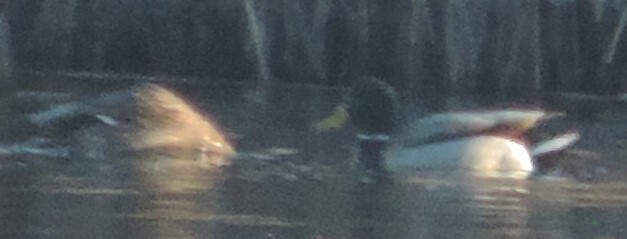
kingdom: Animalia
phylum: Chordata
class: Aves
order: Anseriformes
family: Anatidae
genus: Anas
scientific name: Anas platyrhynchos
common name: Mallard
